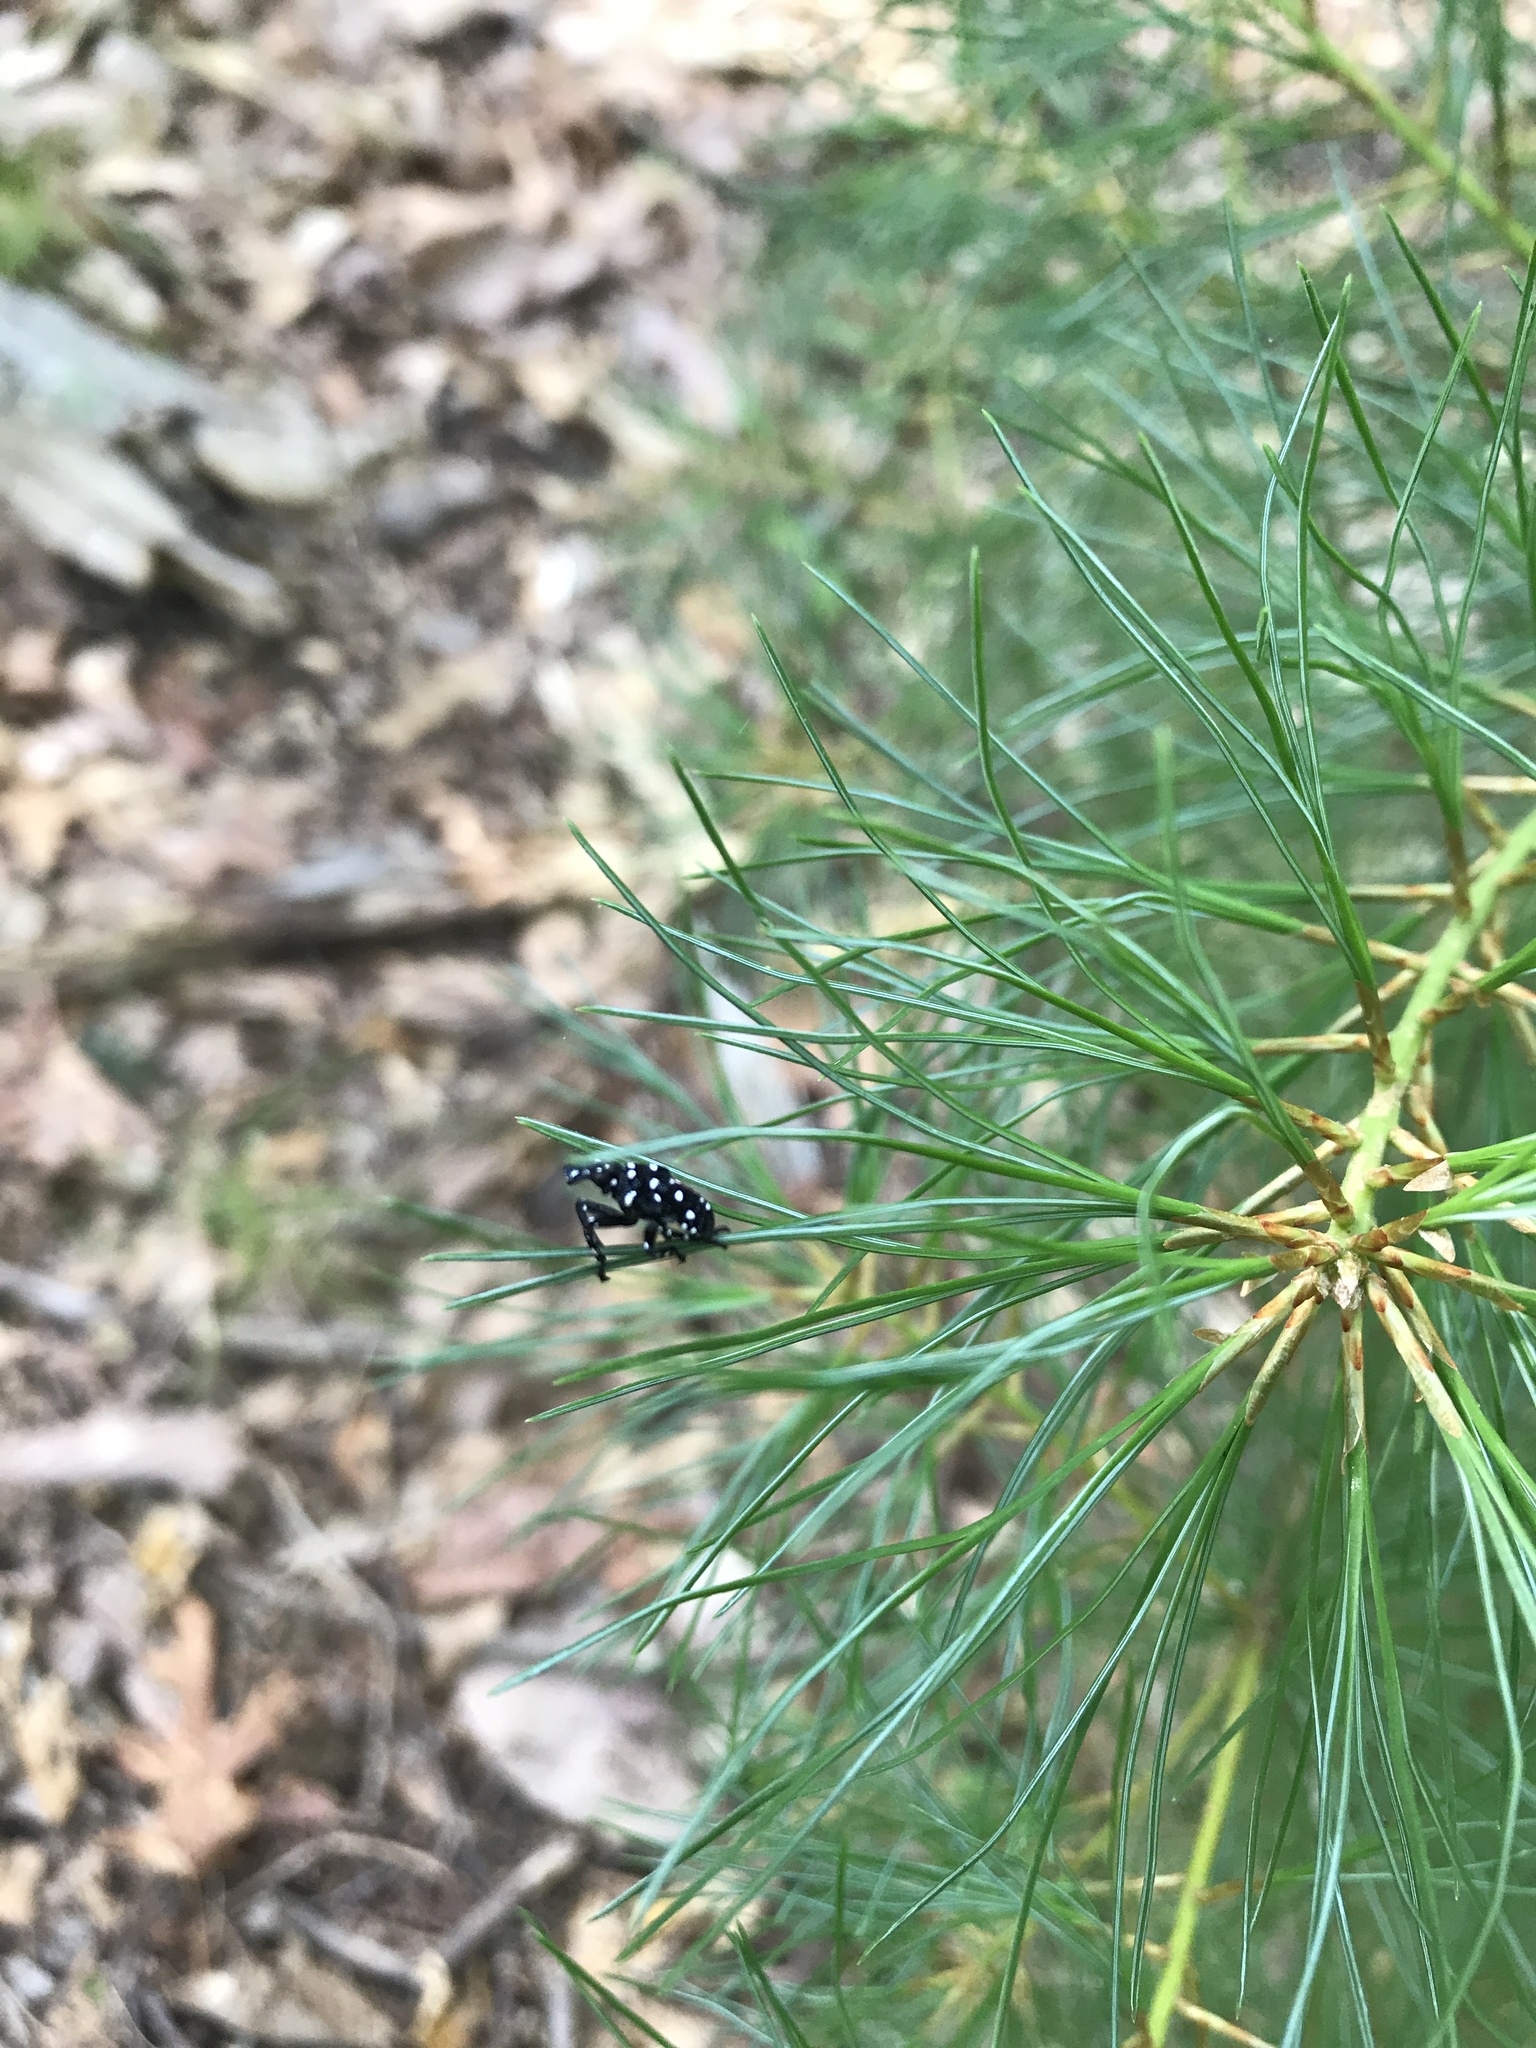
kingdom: Animalia
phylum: Arthropoda
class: Insecta
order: Hemiptera
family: Fulgoridae
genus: Lycorma
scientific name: Lycorma delicatula
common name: Spotted lanternfly
